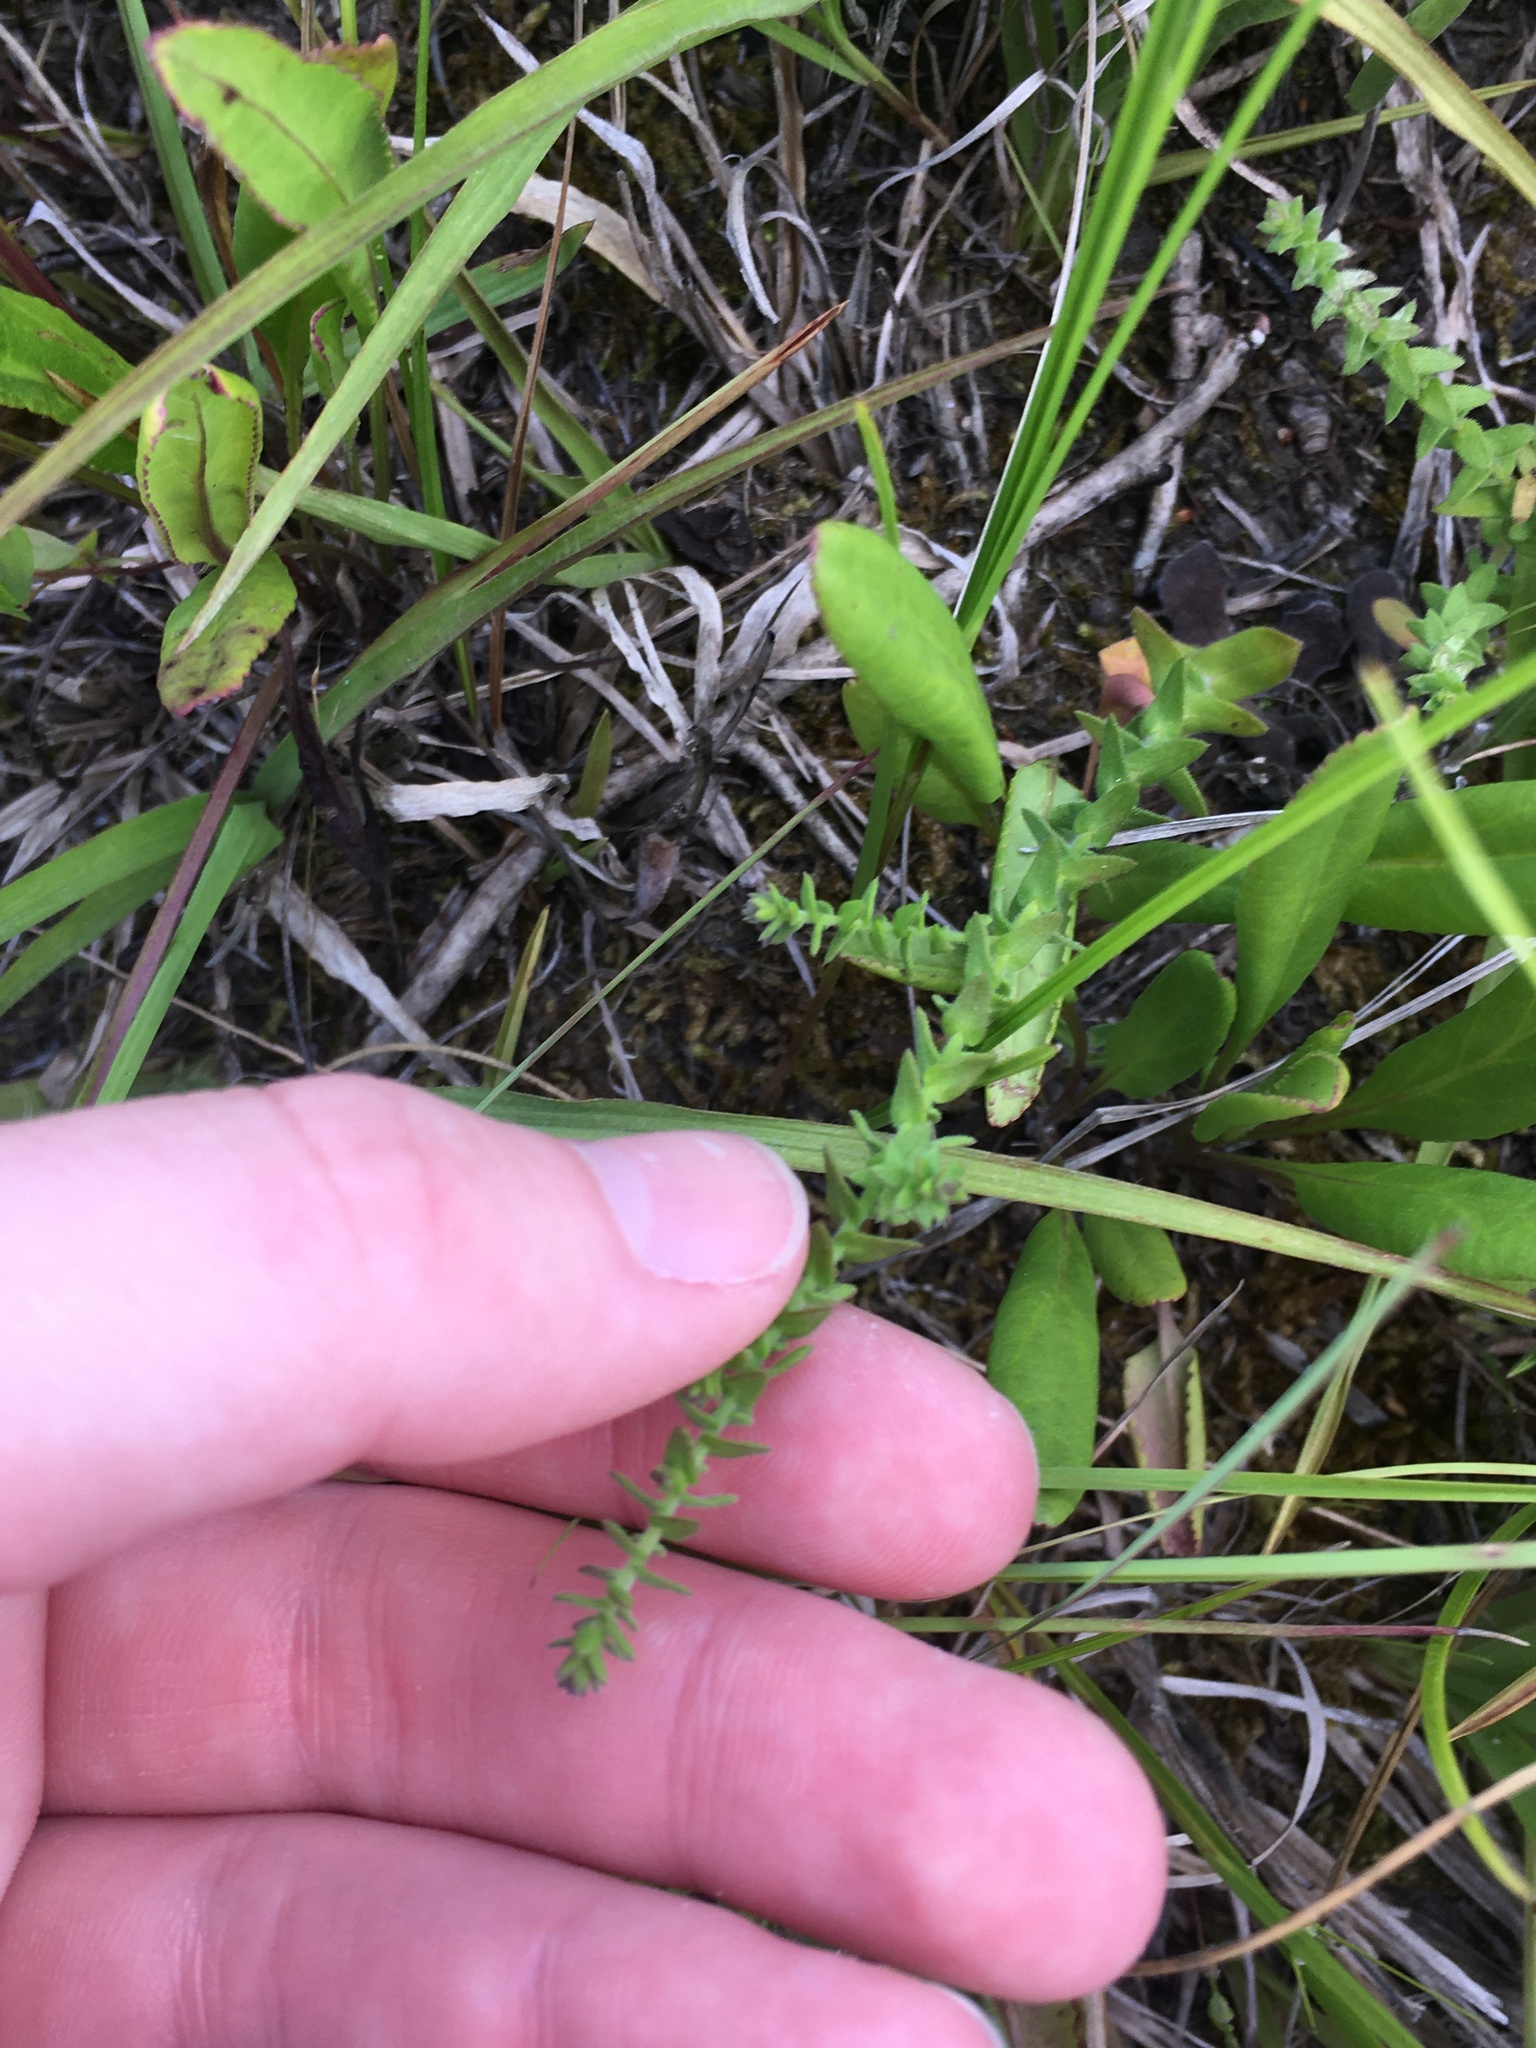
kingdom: Plantae
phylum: Tracheophyta
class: Magnoliopsida
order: Asterales
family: Asteraceae
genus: Symphyotrichum
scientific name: Symphyotrichum walteri
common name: Walter's aster
